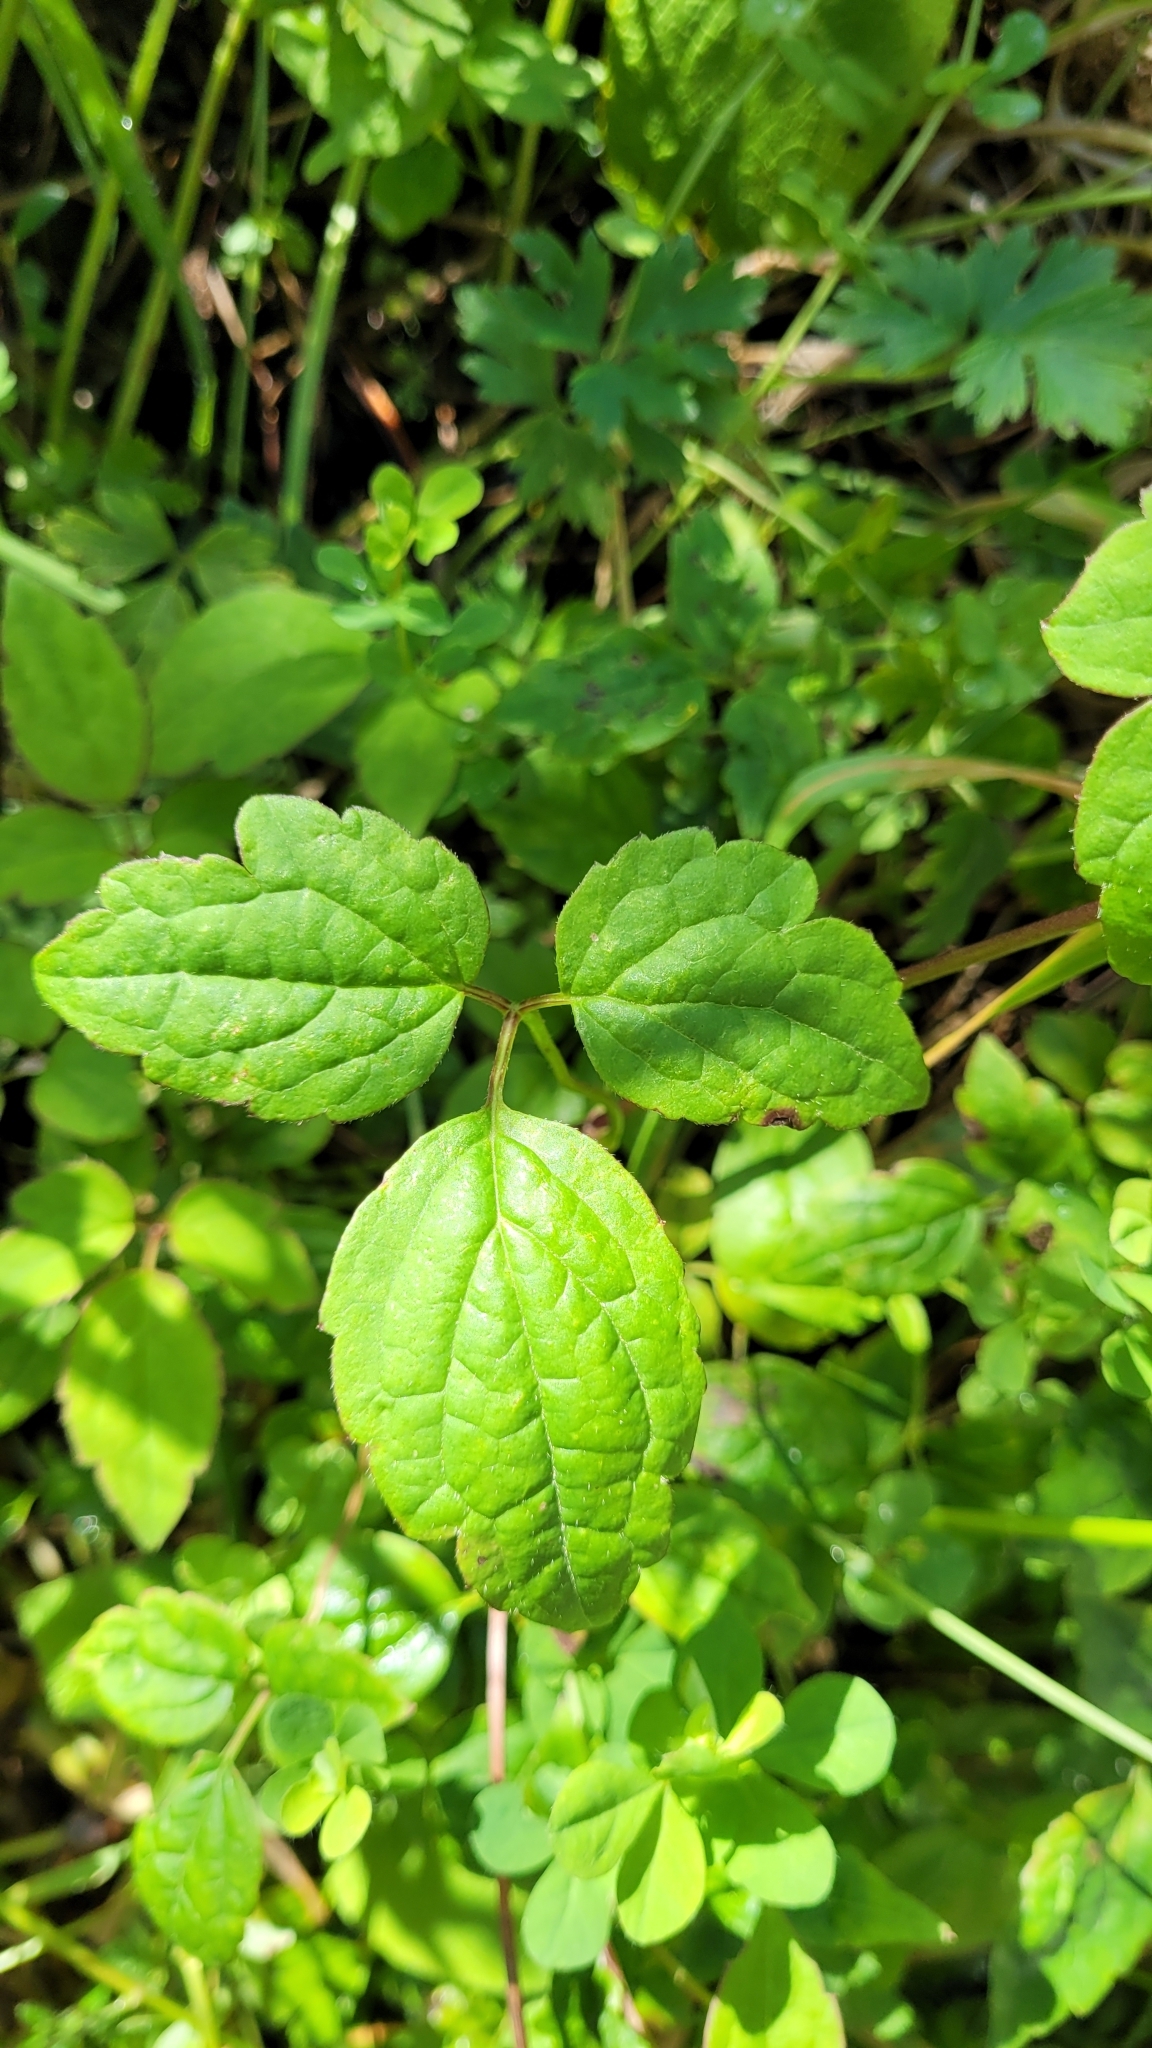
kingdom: Plantae
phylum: Tracheophyta
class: Magnoliopsida
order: Ranunculales
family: Ranunculaceae
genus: Clematis
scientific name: Clematis vitalba
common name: Evergreen clematis
